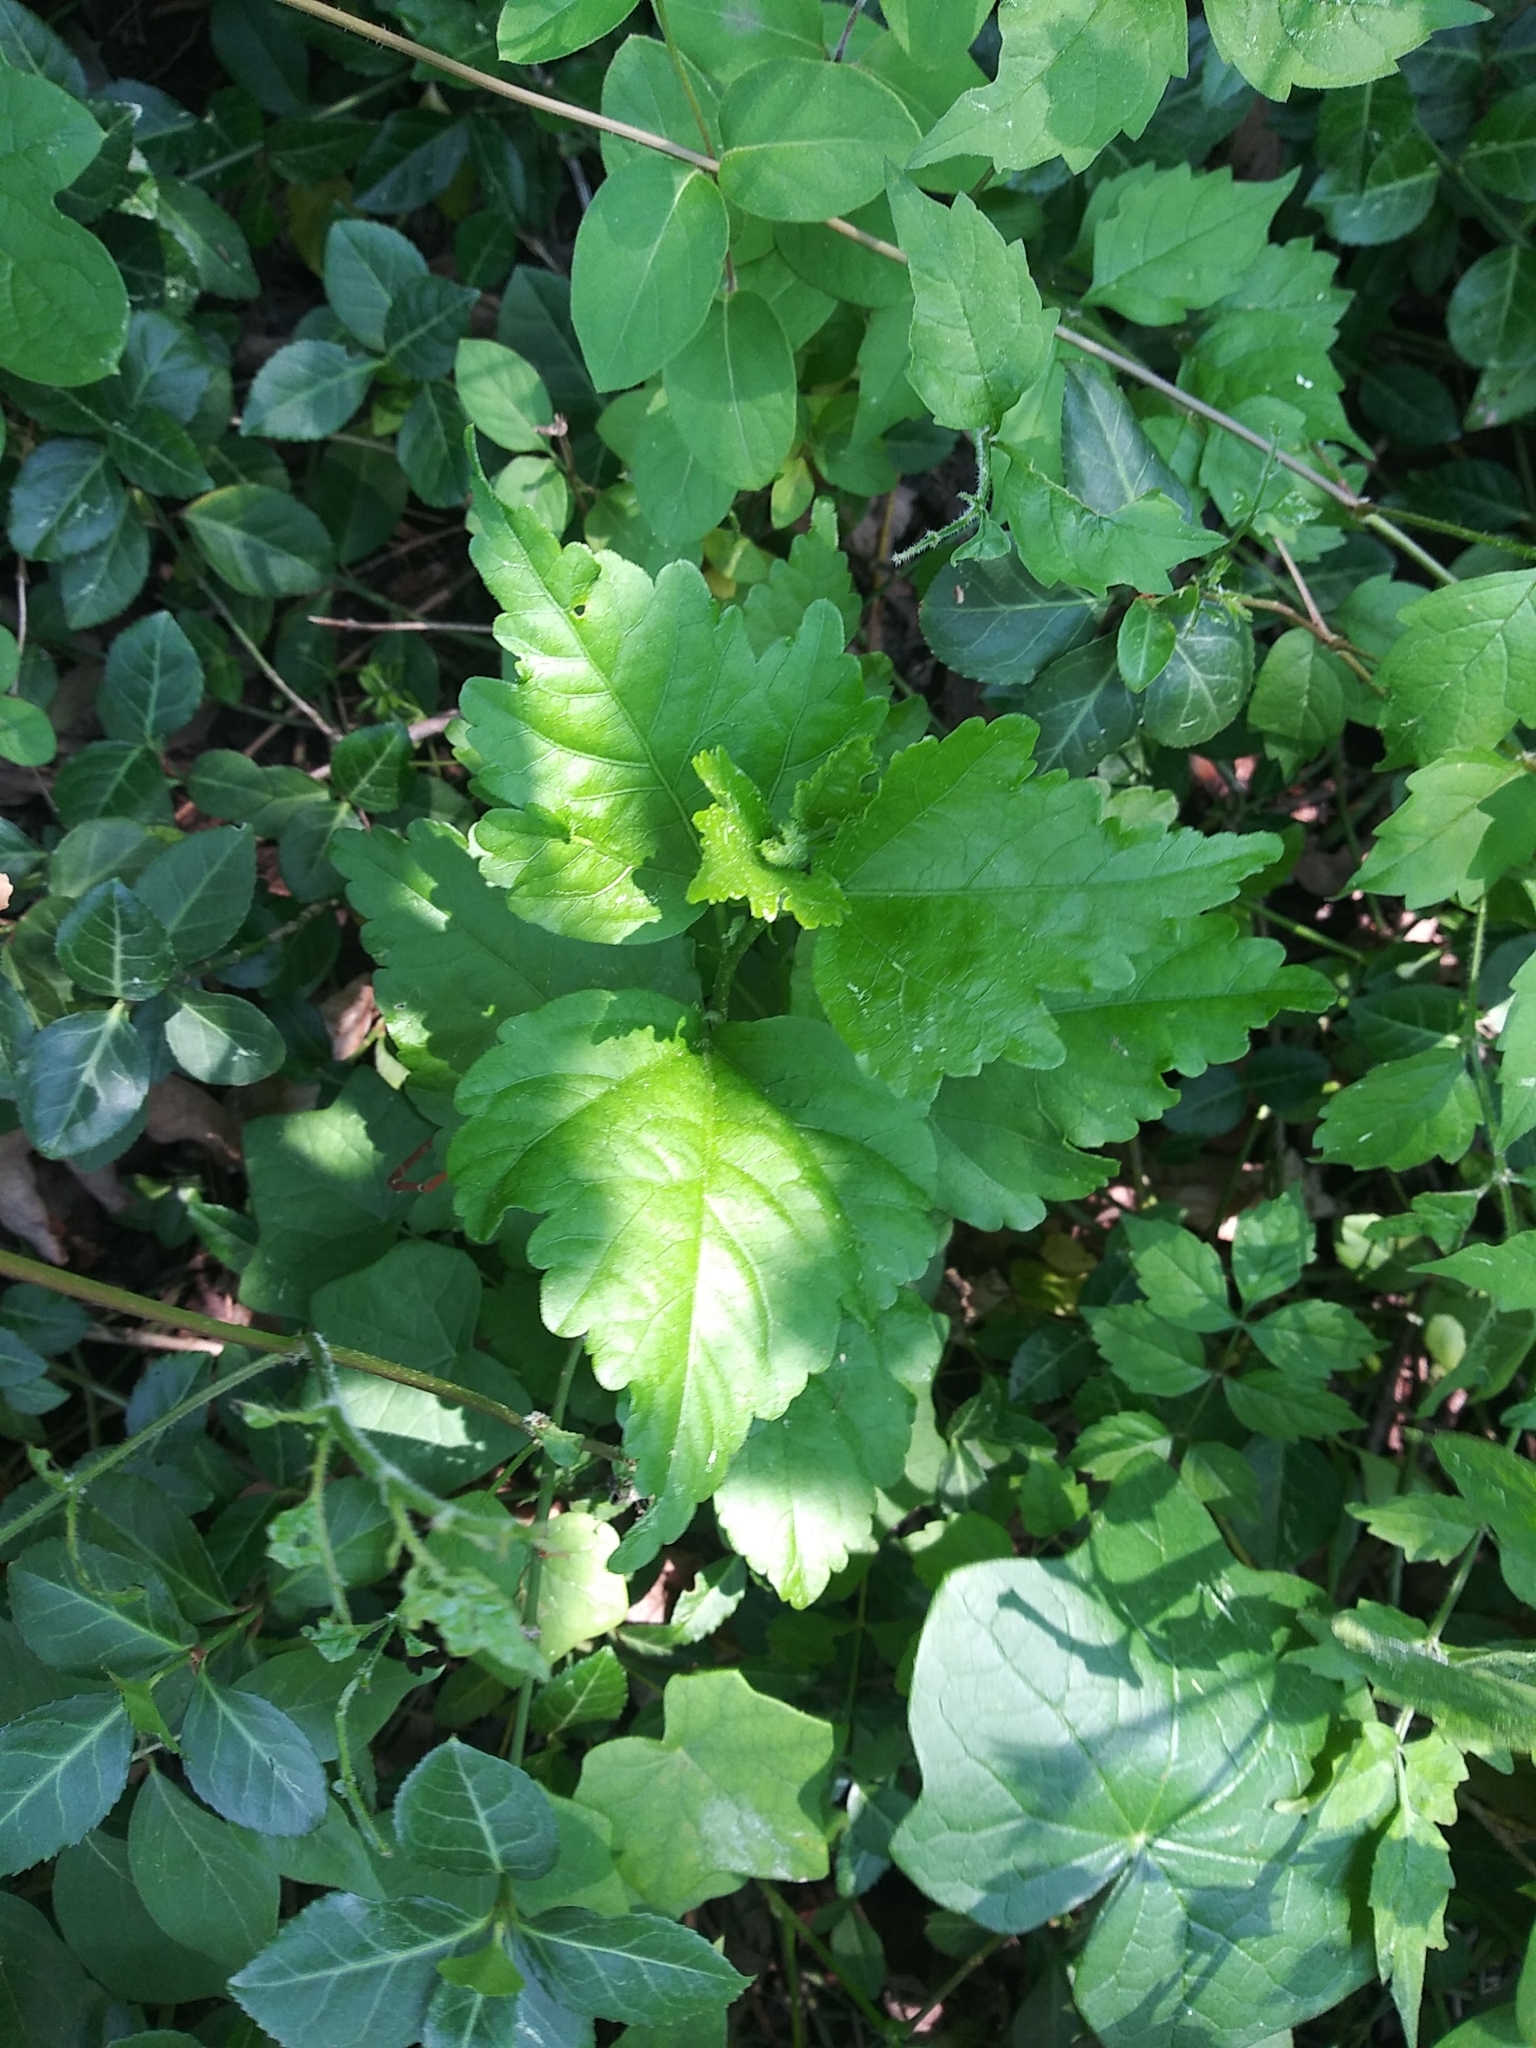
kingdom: Plantae
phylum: Tracheophyta
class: Magnoliopsida
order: Malvales
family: Malvaceae
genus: Hibiscus
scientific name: Hibiscus syriacus
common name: Syrian ketmia
